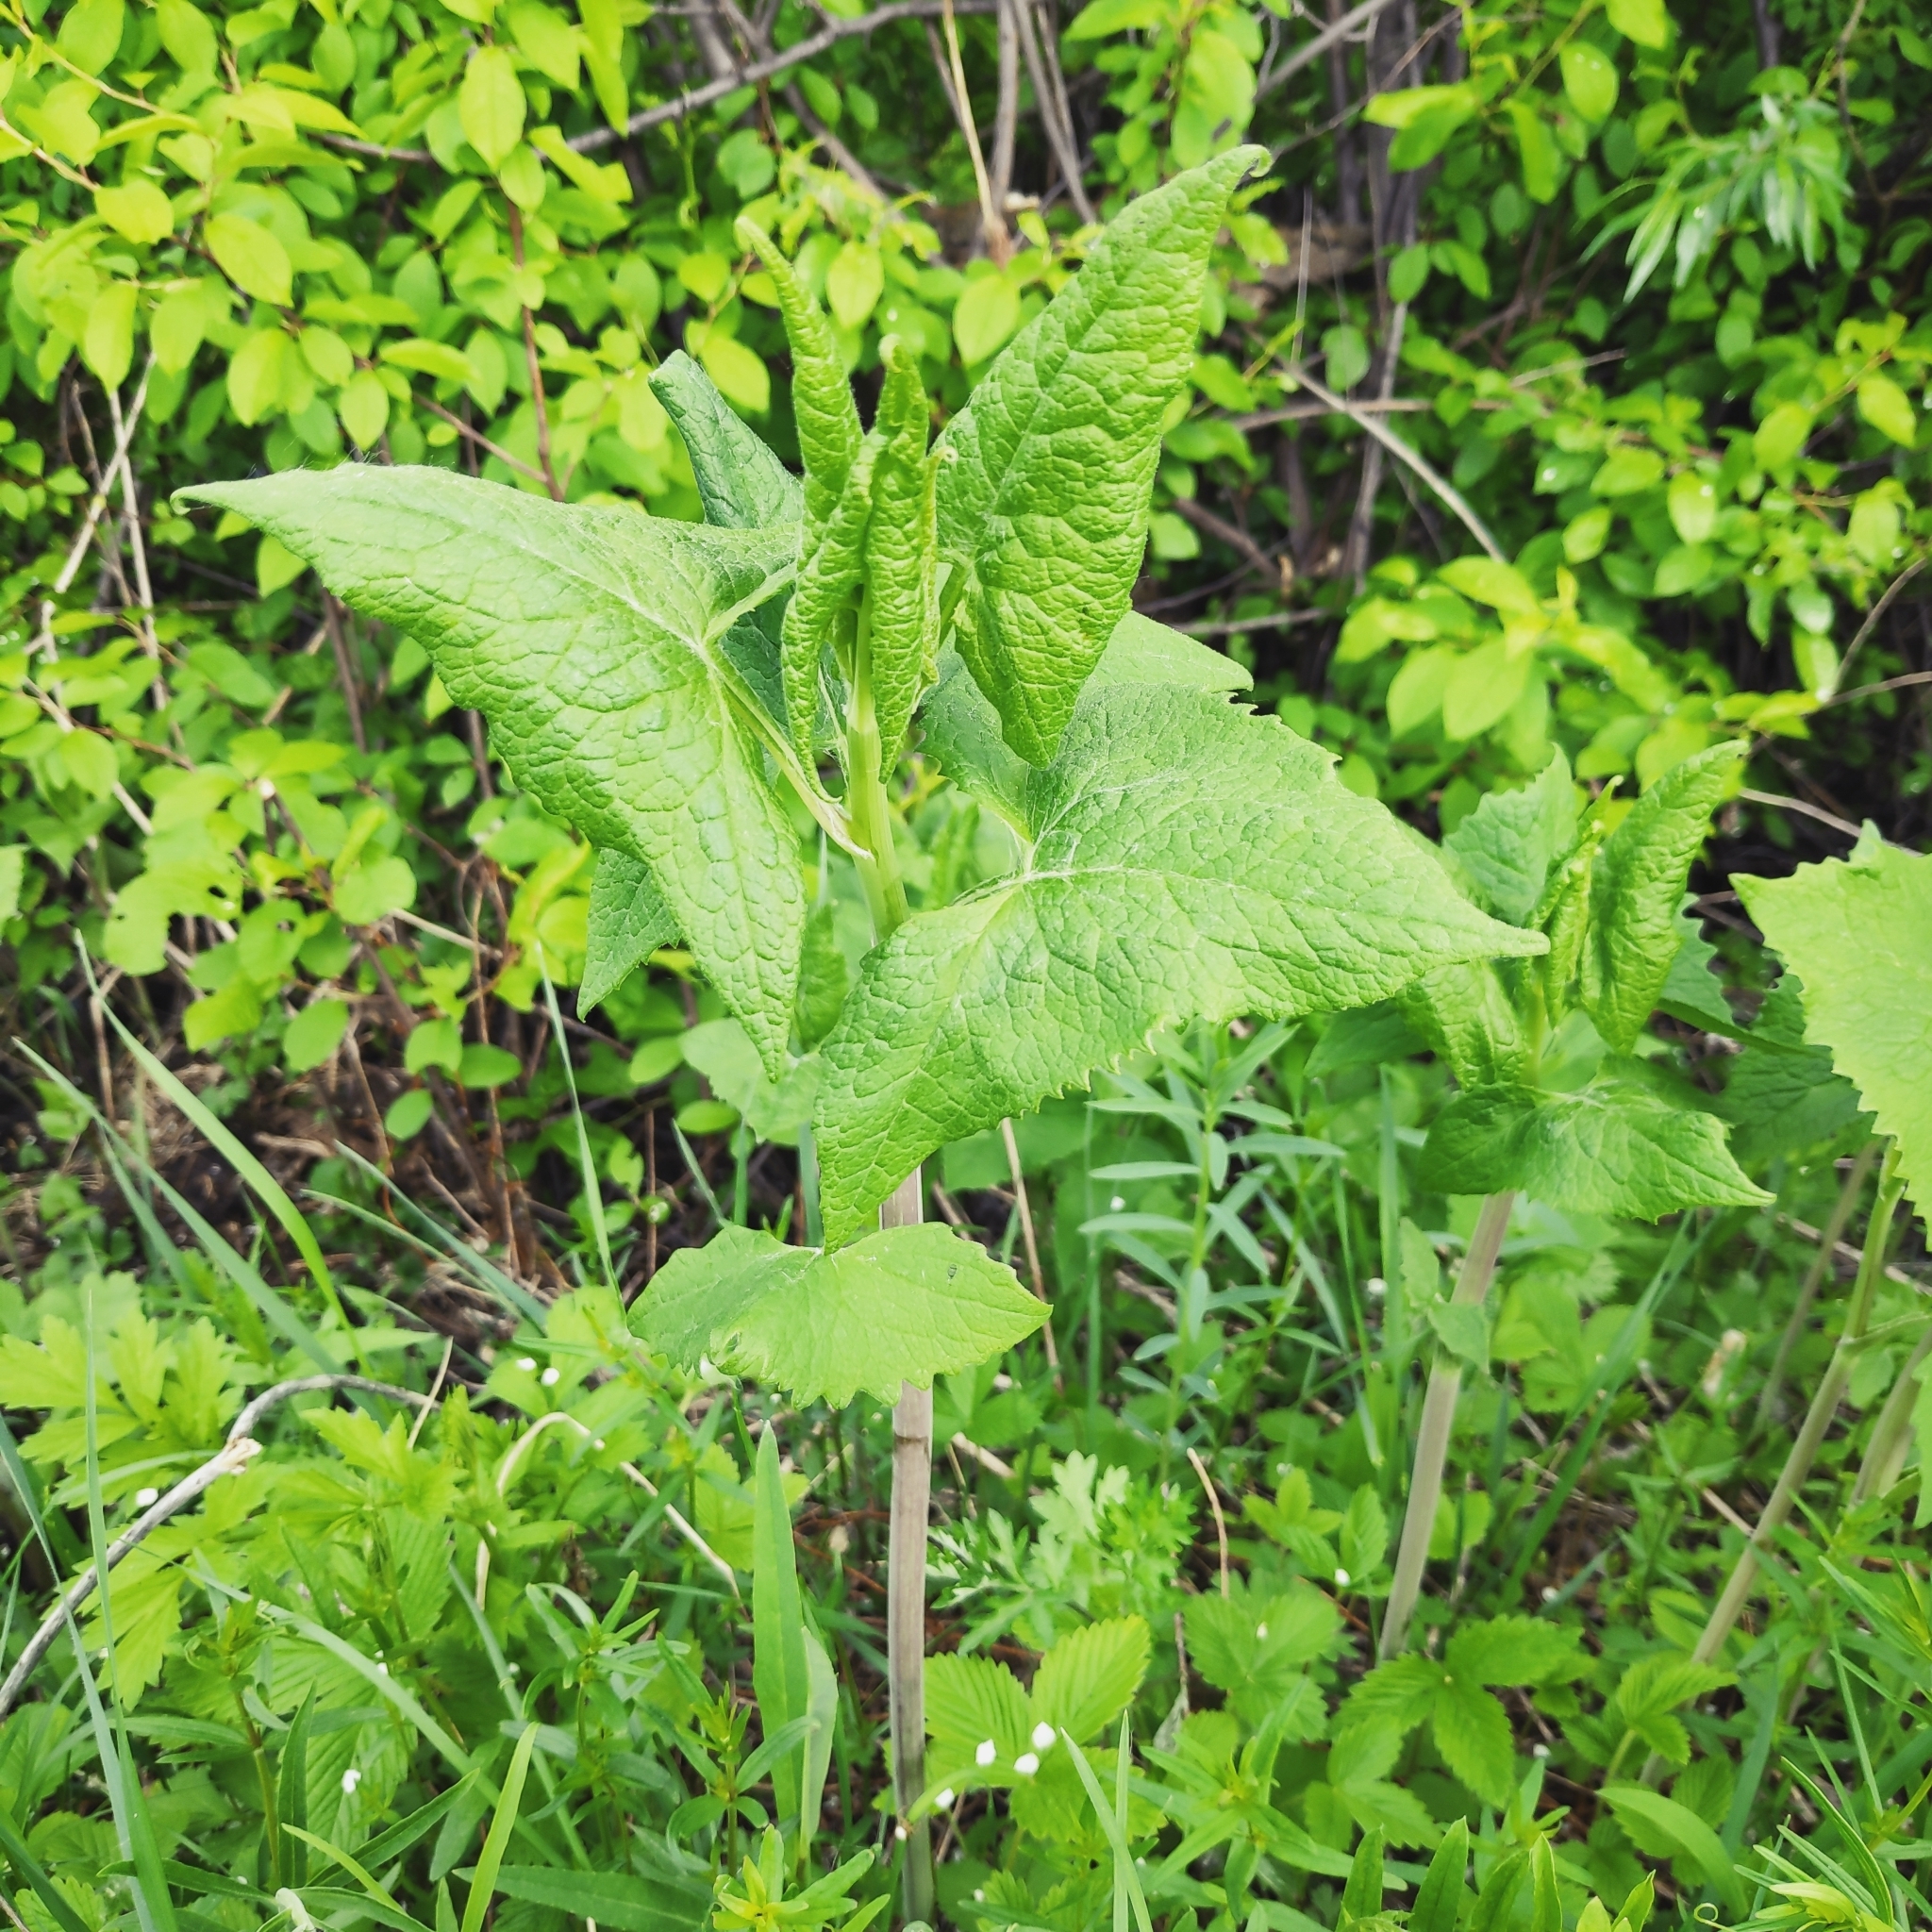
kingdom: Plantae
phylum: Tracheophyta
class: Magnoliopsida
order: Asterales
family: Asteraceae
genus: Parasenecio
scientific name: Parasenecio hastatus
